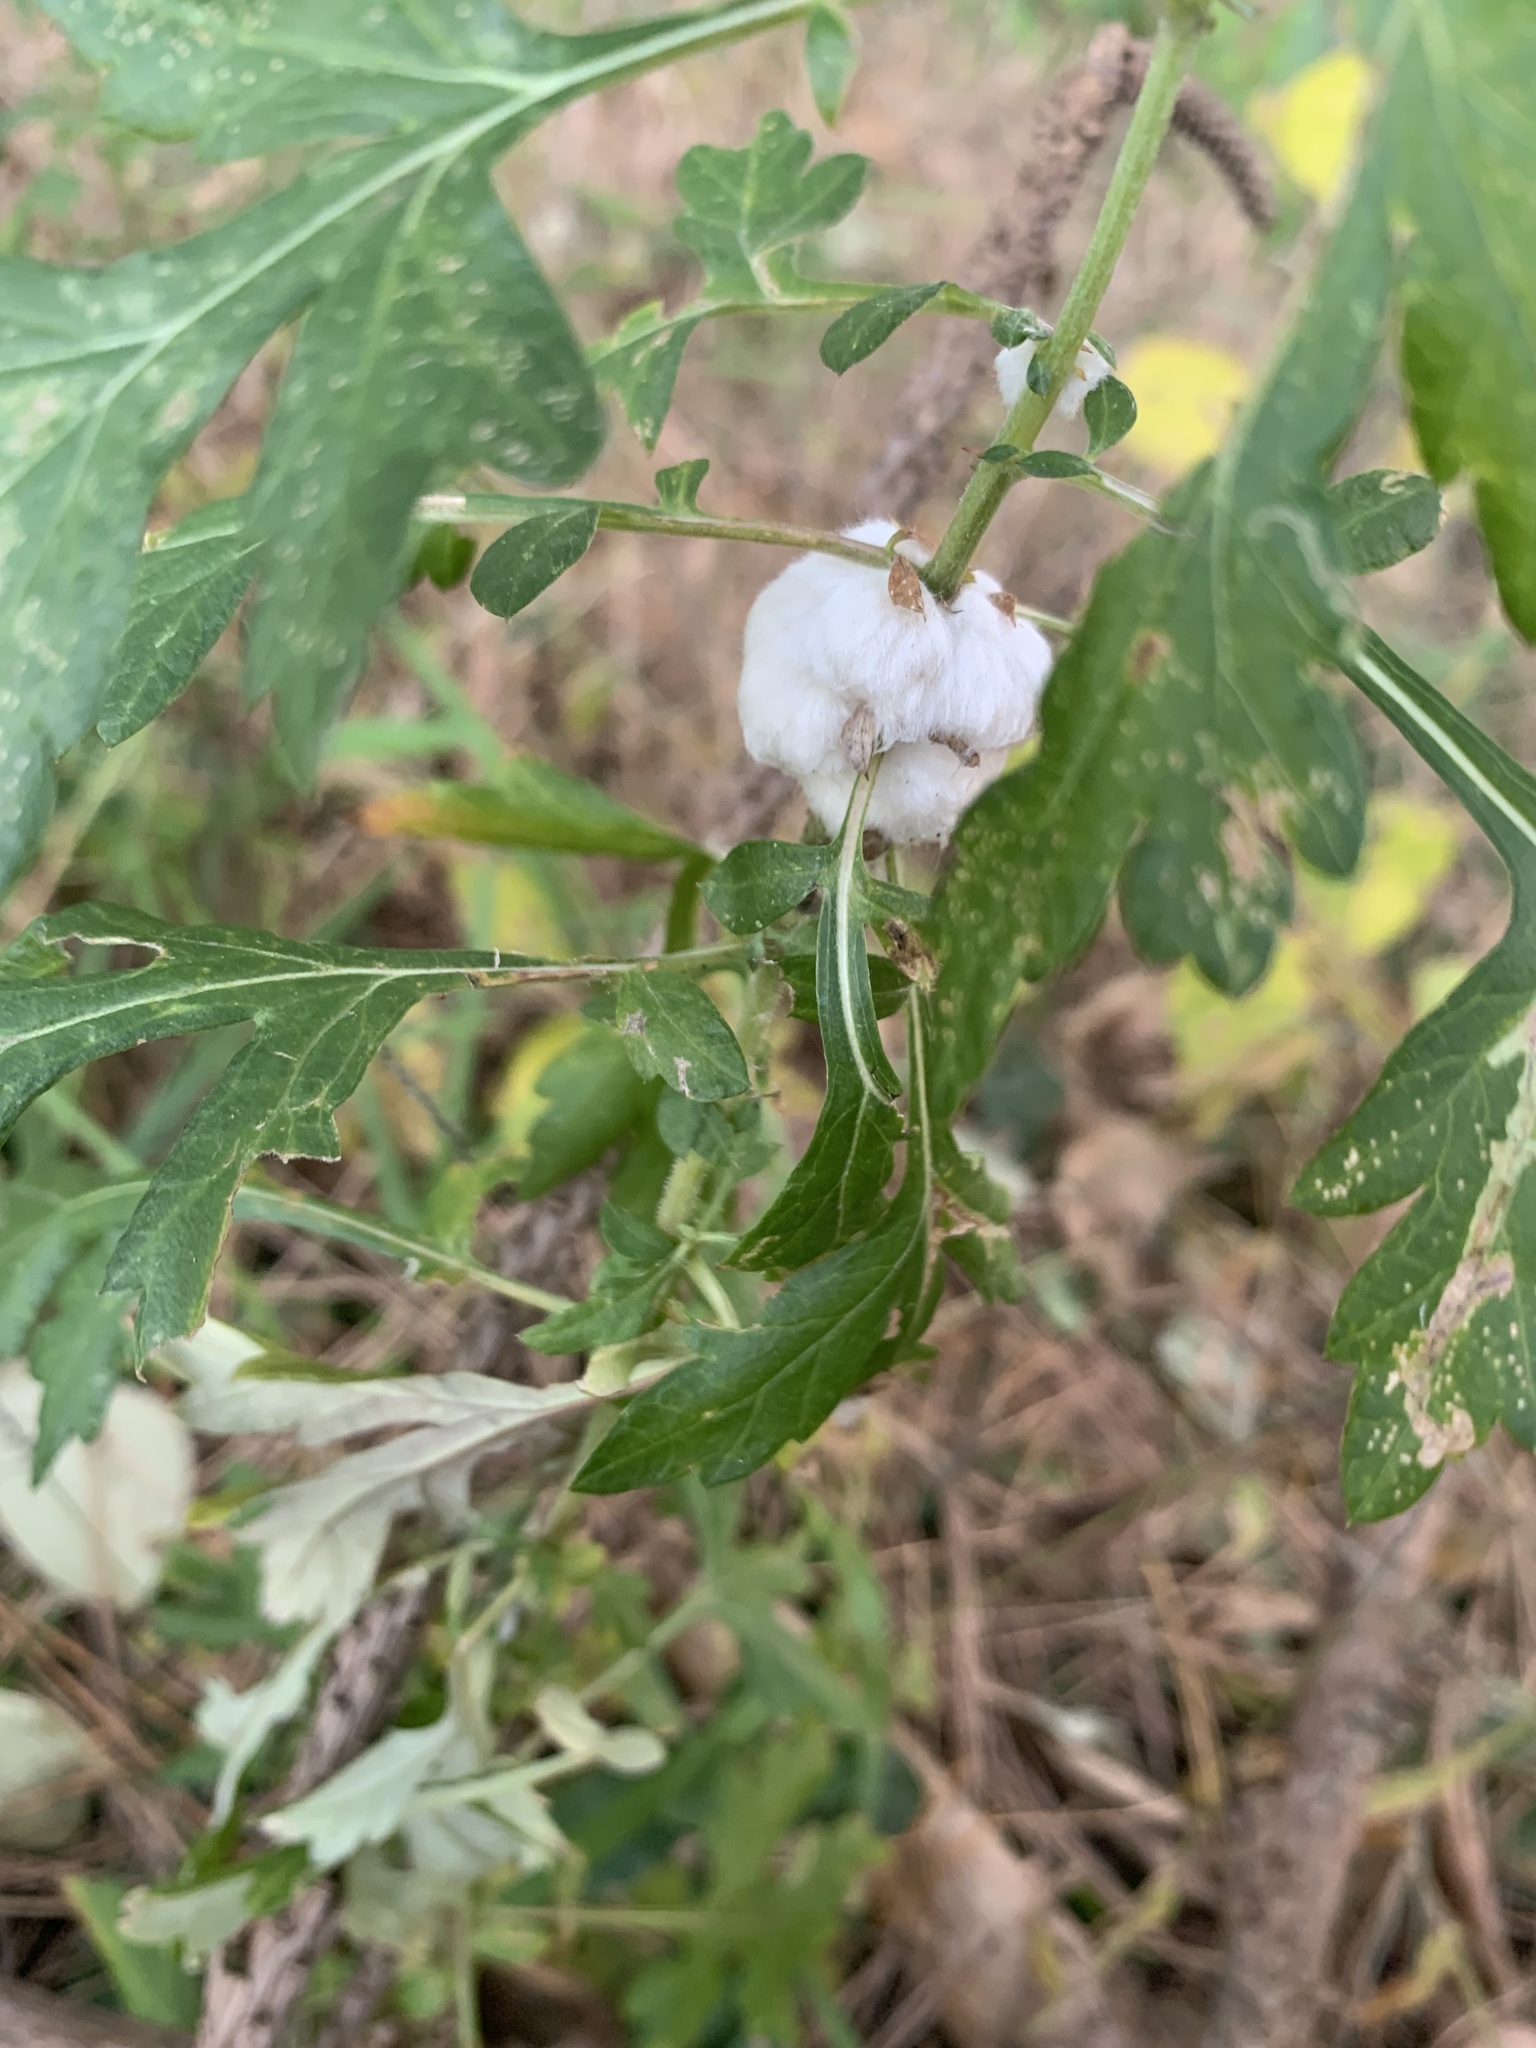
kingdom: Animalia
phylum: Arthropoda
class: Insecta
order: Diptera
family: Cecidomyiidae
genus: Rhopalomyia
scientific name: Rhopalomyia giraldii
